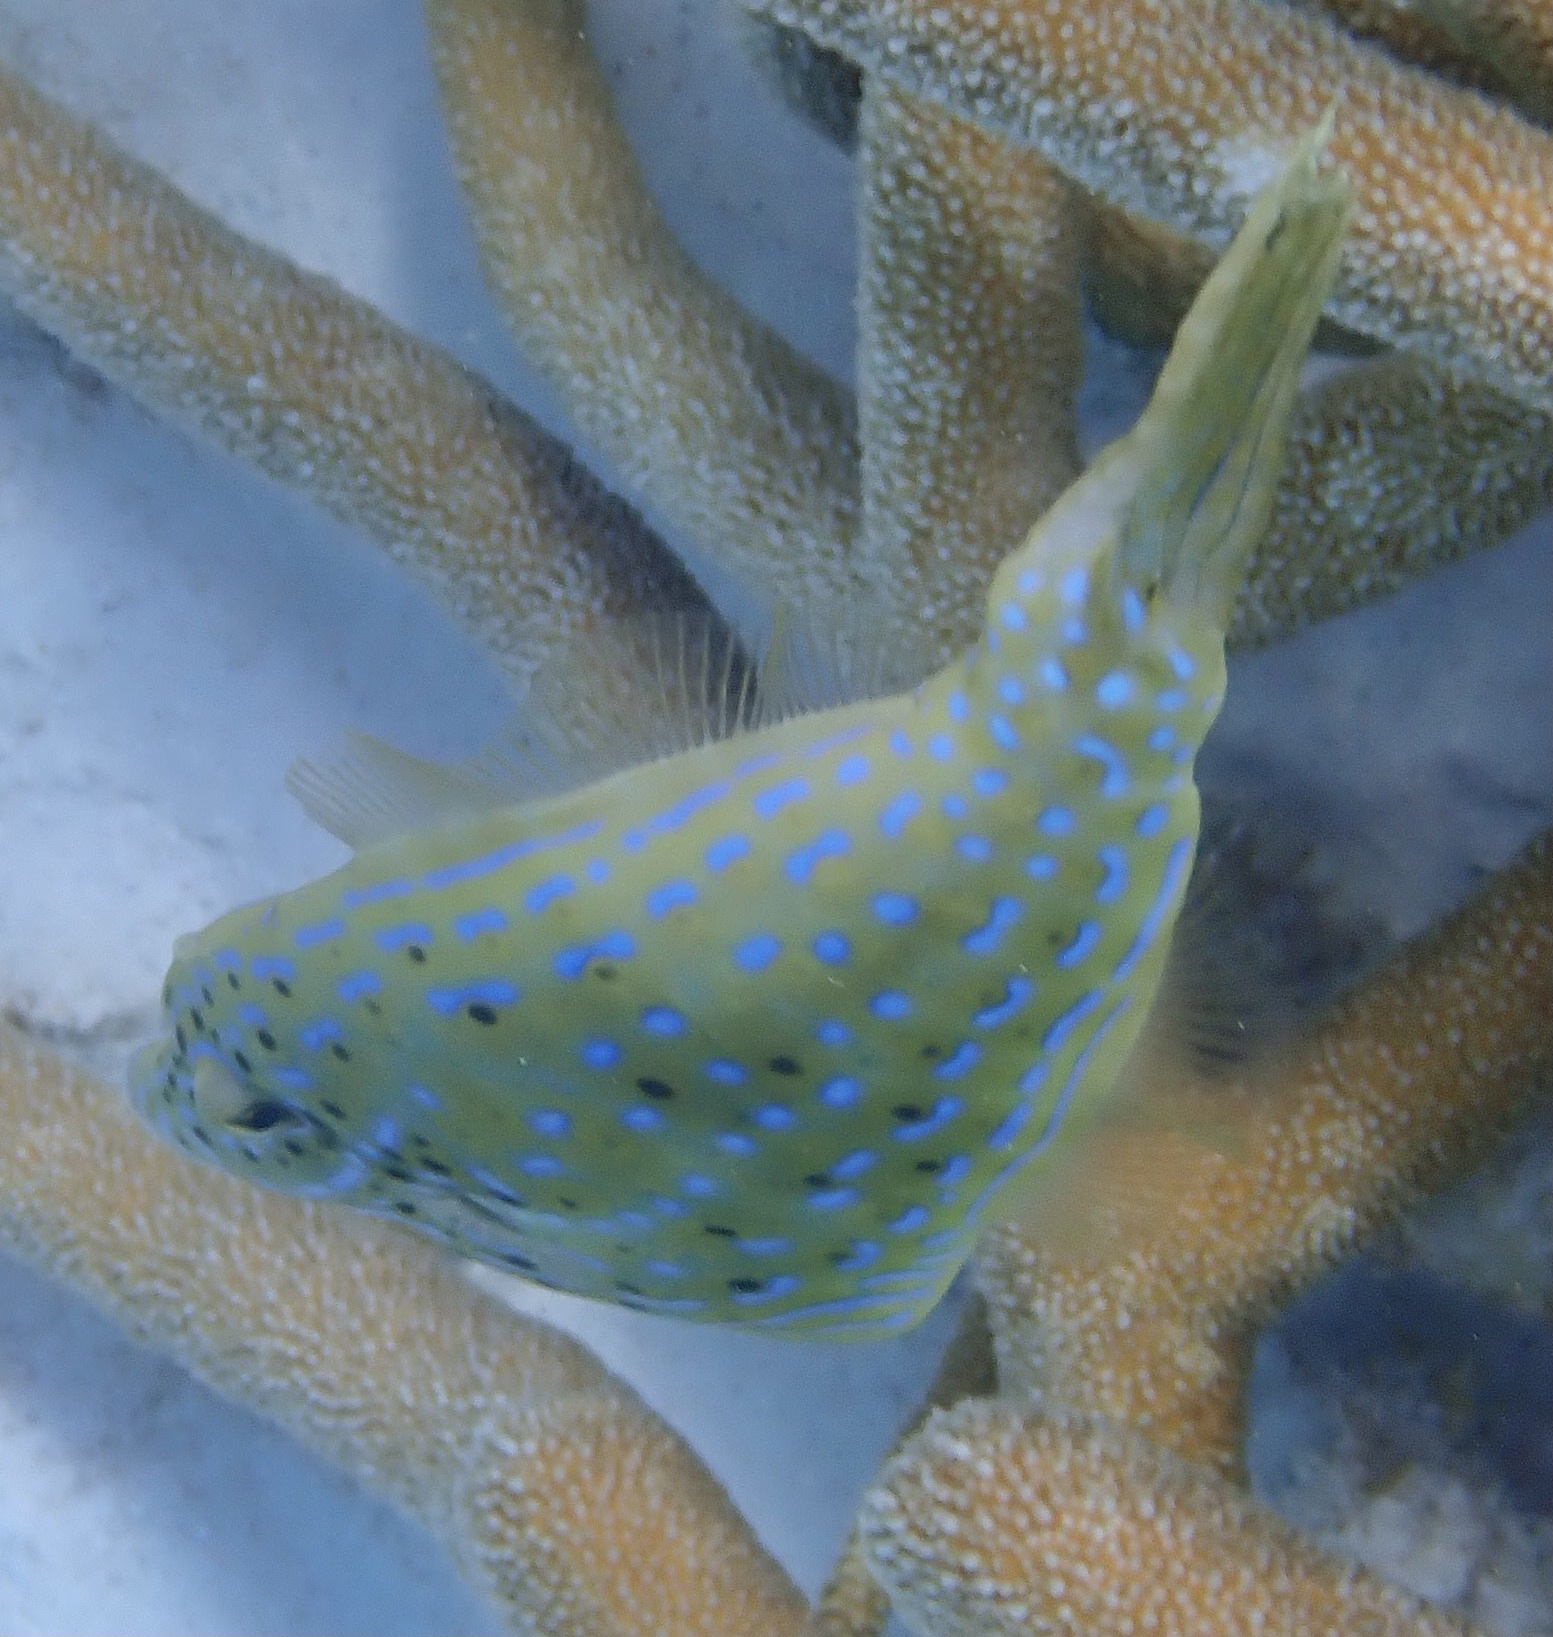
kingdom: Animalia
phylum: Chordata
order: Tetraodontiformes
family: Monacanthidae
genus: Aluterus
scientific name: Aluterus scriptus
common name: Scribbled leatherjacket filefish
